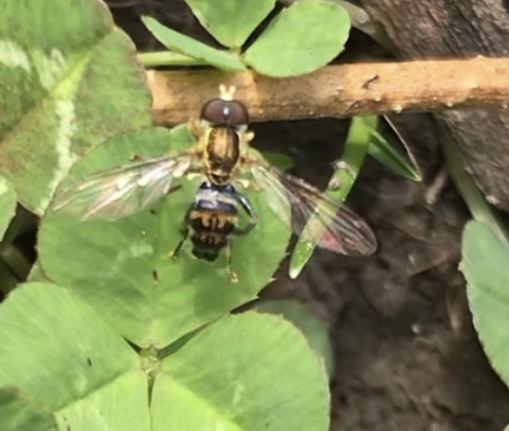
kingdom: Animalia
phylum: Arthropoda
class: Insecta
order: Diptera
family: Syrphidae
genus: Toxomerus
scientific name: Toxomerus geminatus
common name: Eastern calligrapher
